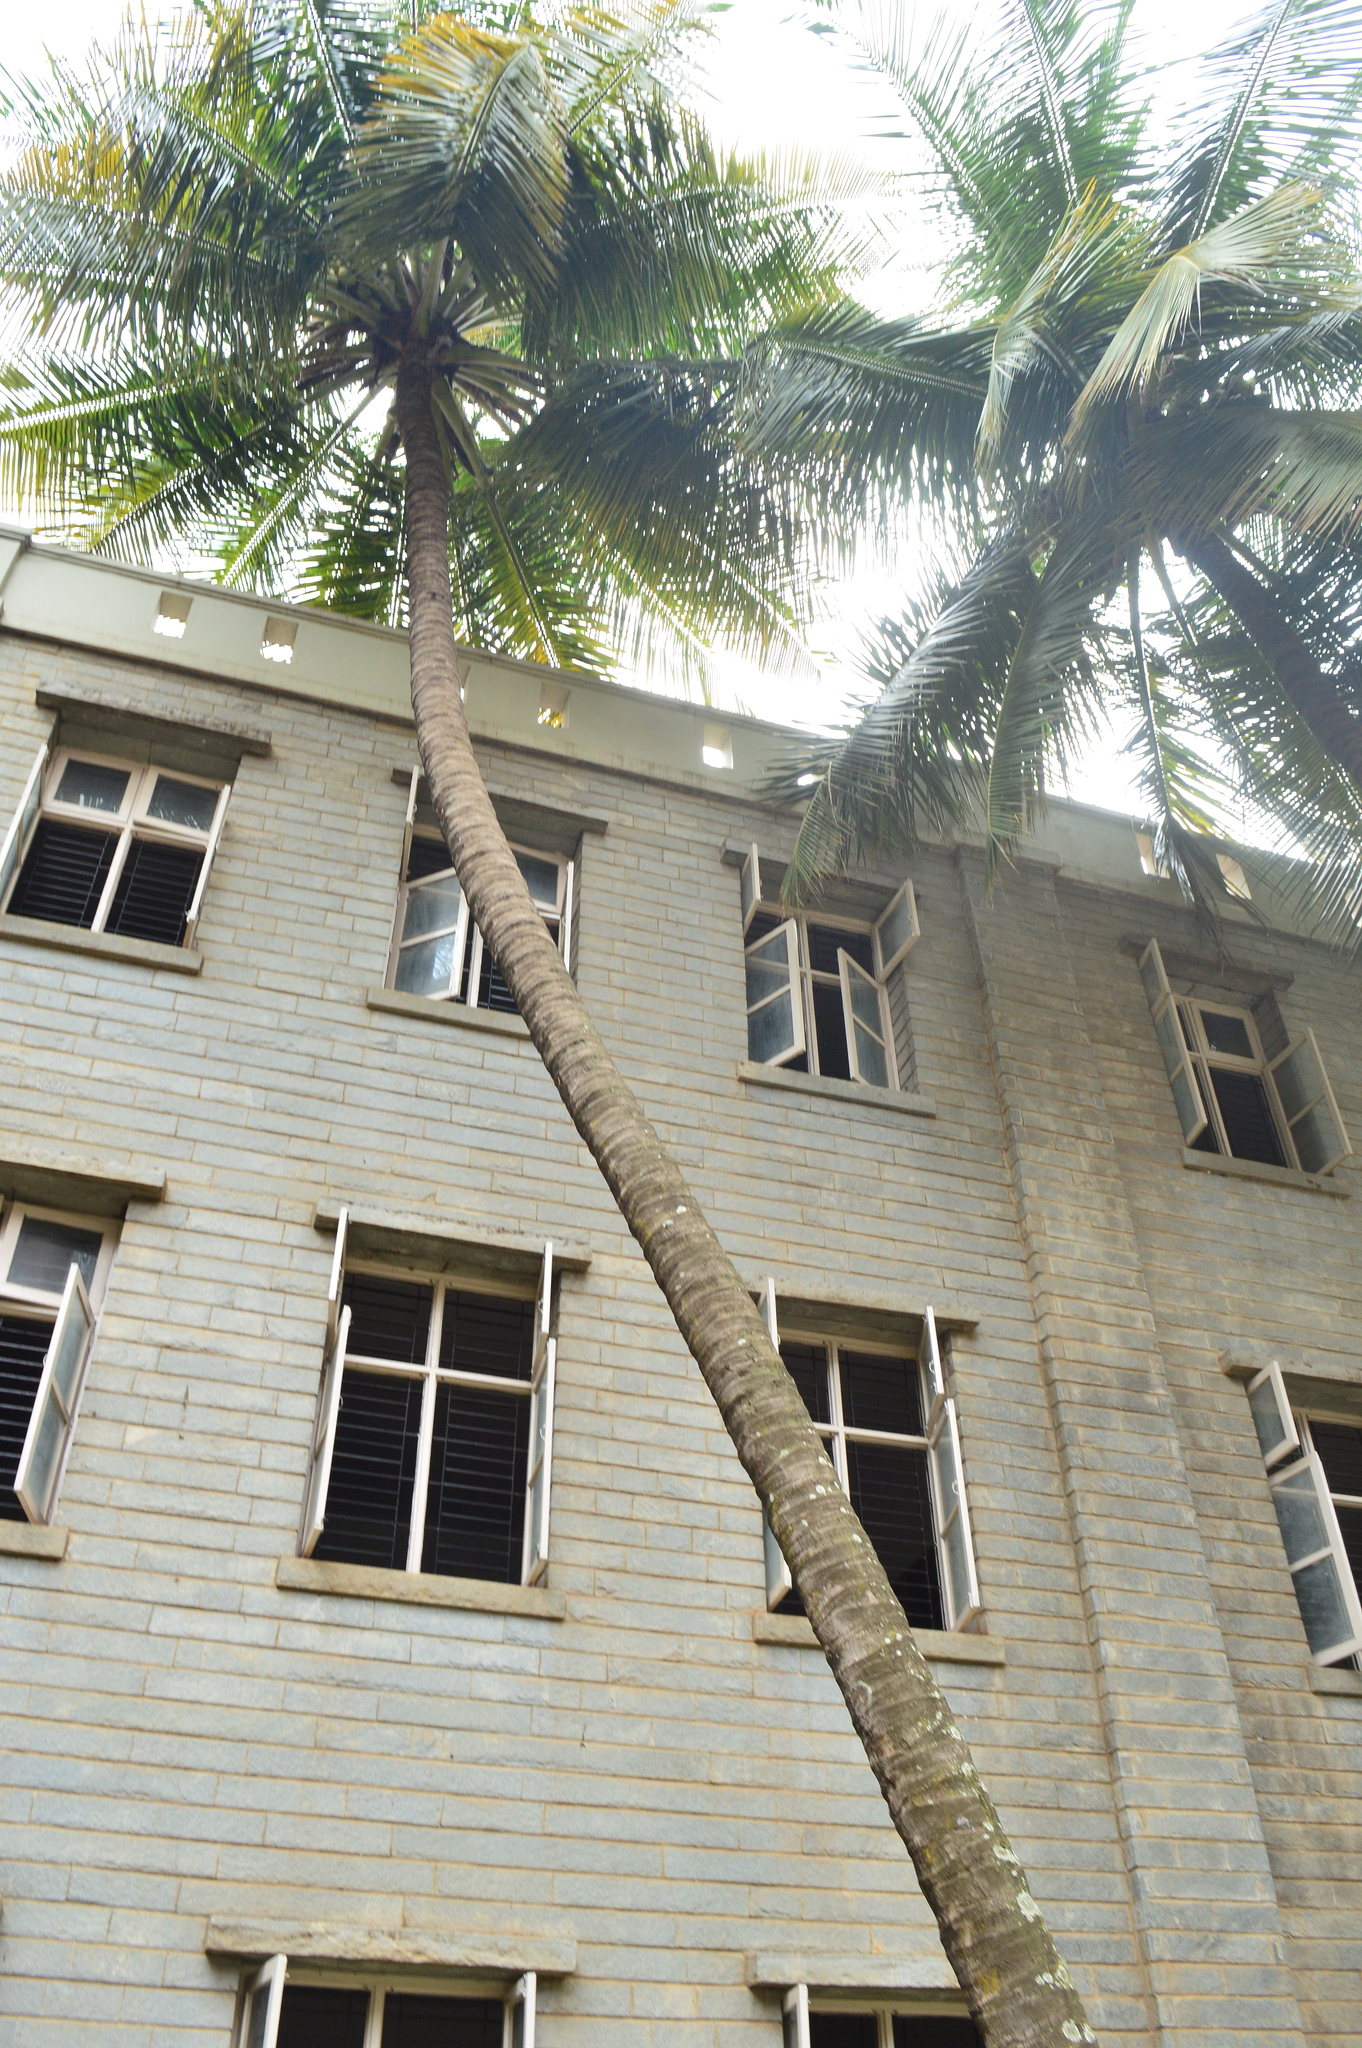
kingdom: Plantae
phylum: Tracheophyta
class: Liliopsida
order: Arecales
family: Arecaceae
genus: Cocos
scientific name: Cocos nucifera
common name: Coconut palm
